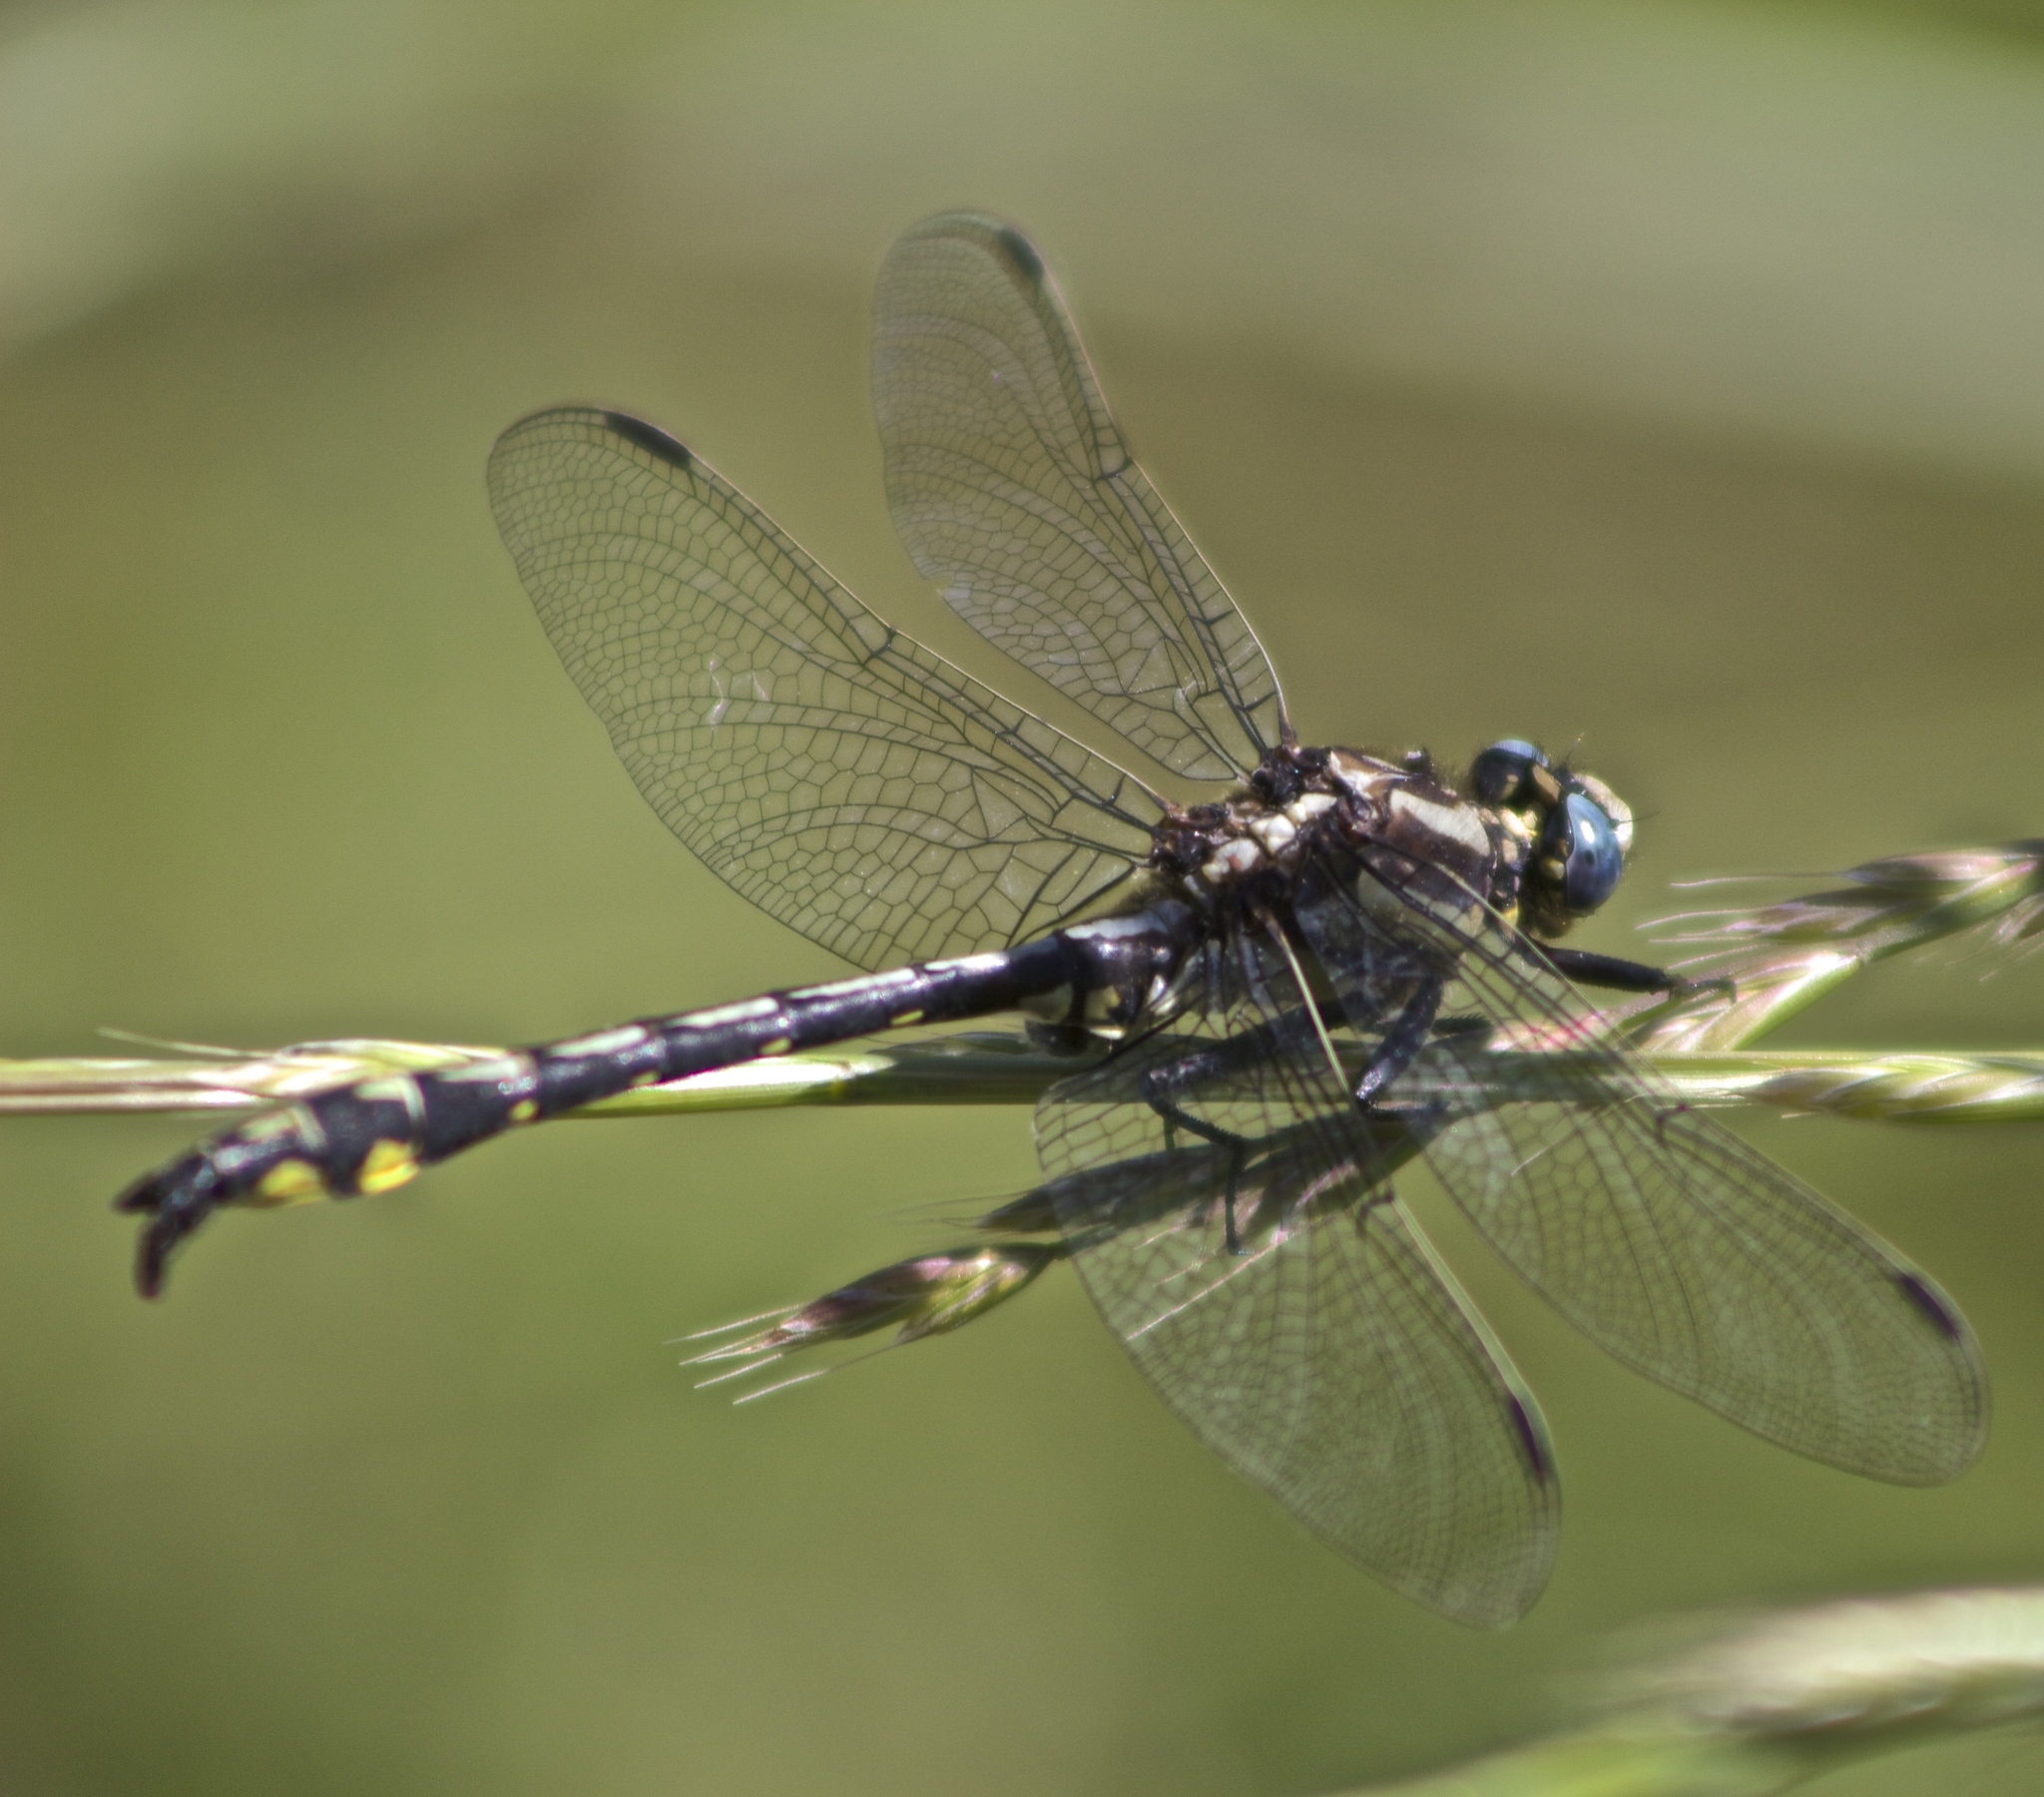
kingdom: Animalia
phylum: Arthropoda
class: Insecta
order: Odonata
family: Gomphidae
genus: Phanogomphus
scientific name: Phanogomphus kurilis
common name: Pacific clubtail
